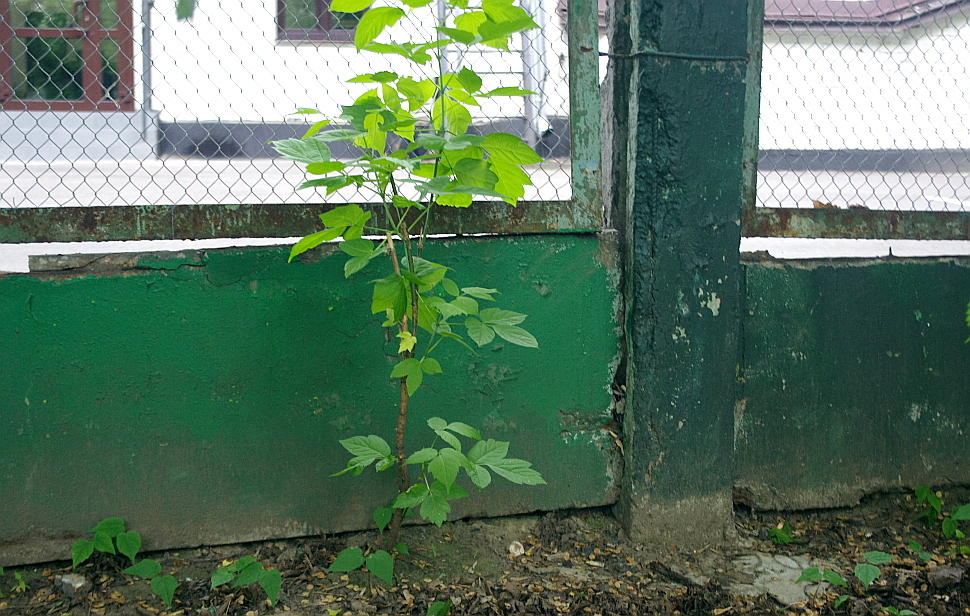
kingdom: Plantae
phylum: Tracheophyta
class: Magnoliopsida
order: Sapindales
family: Sapindaceae
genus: Acer
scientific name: Acer negundo
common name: Ashleaf maple
